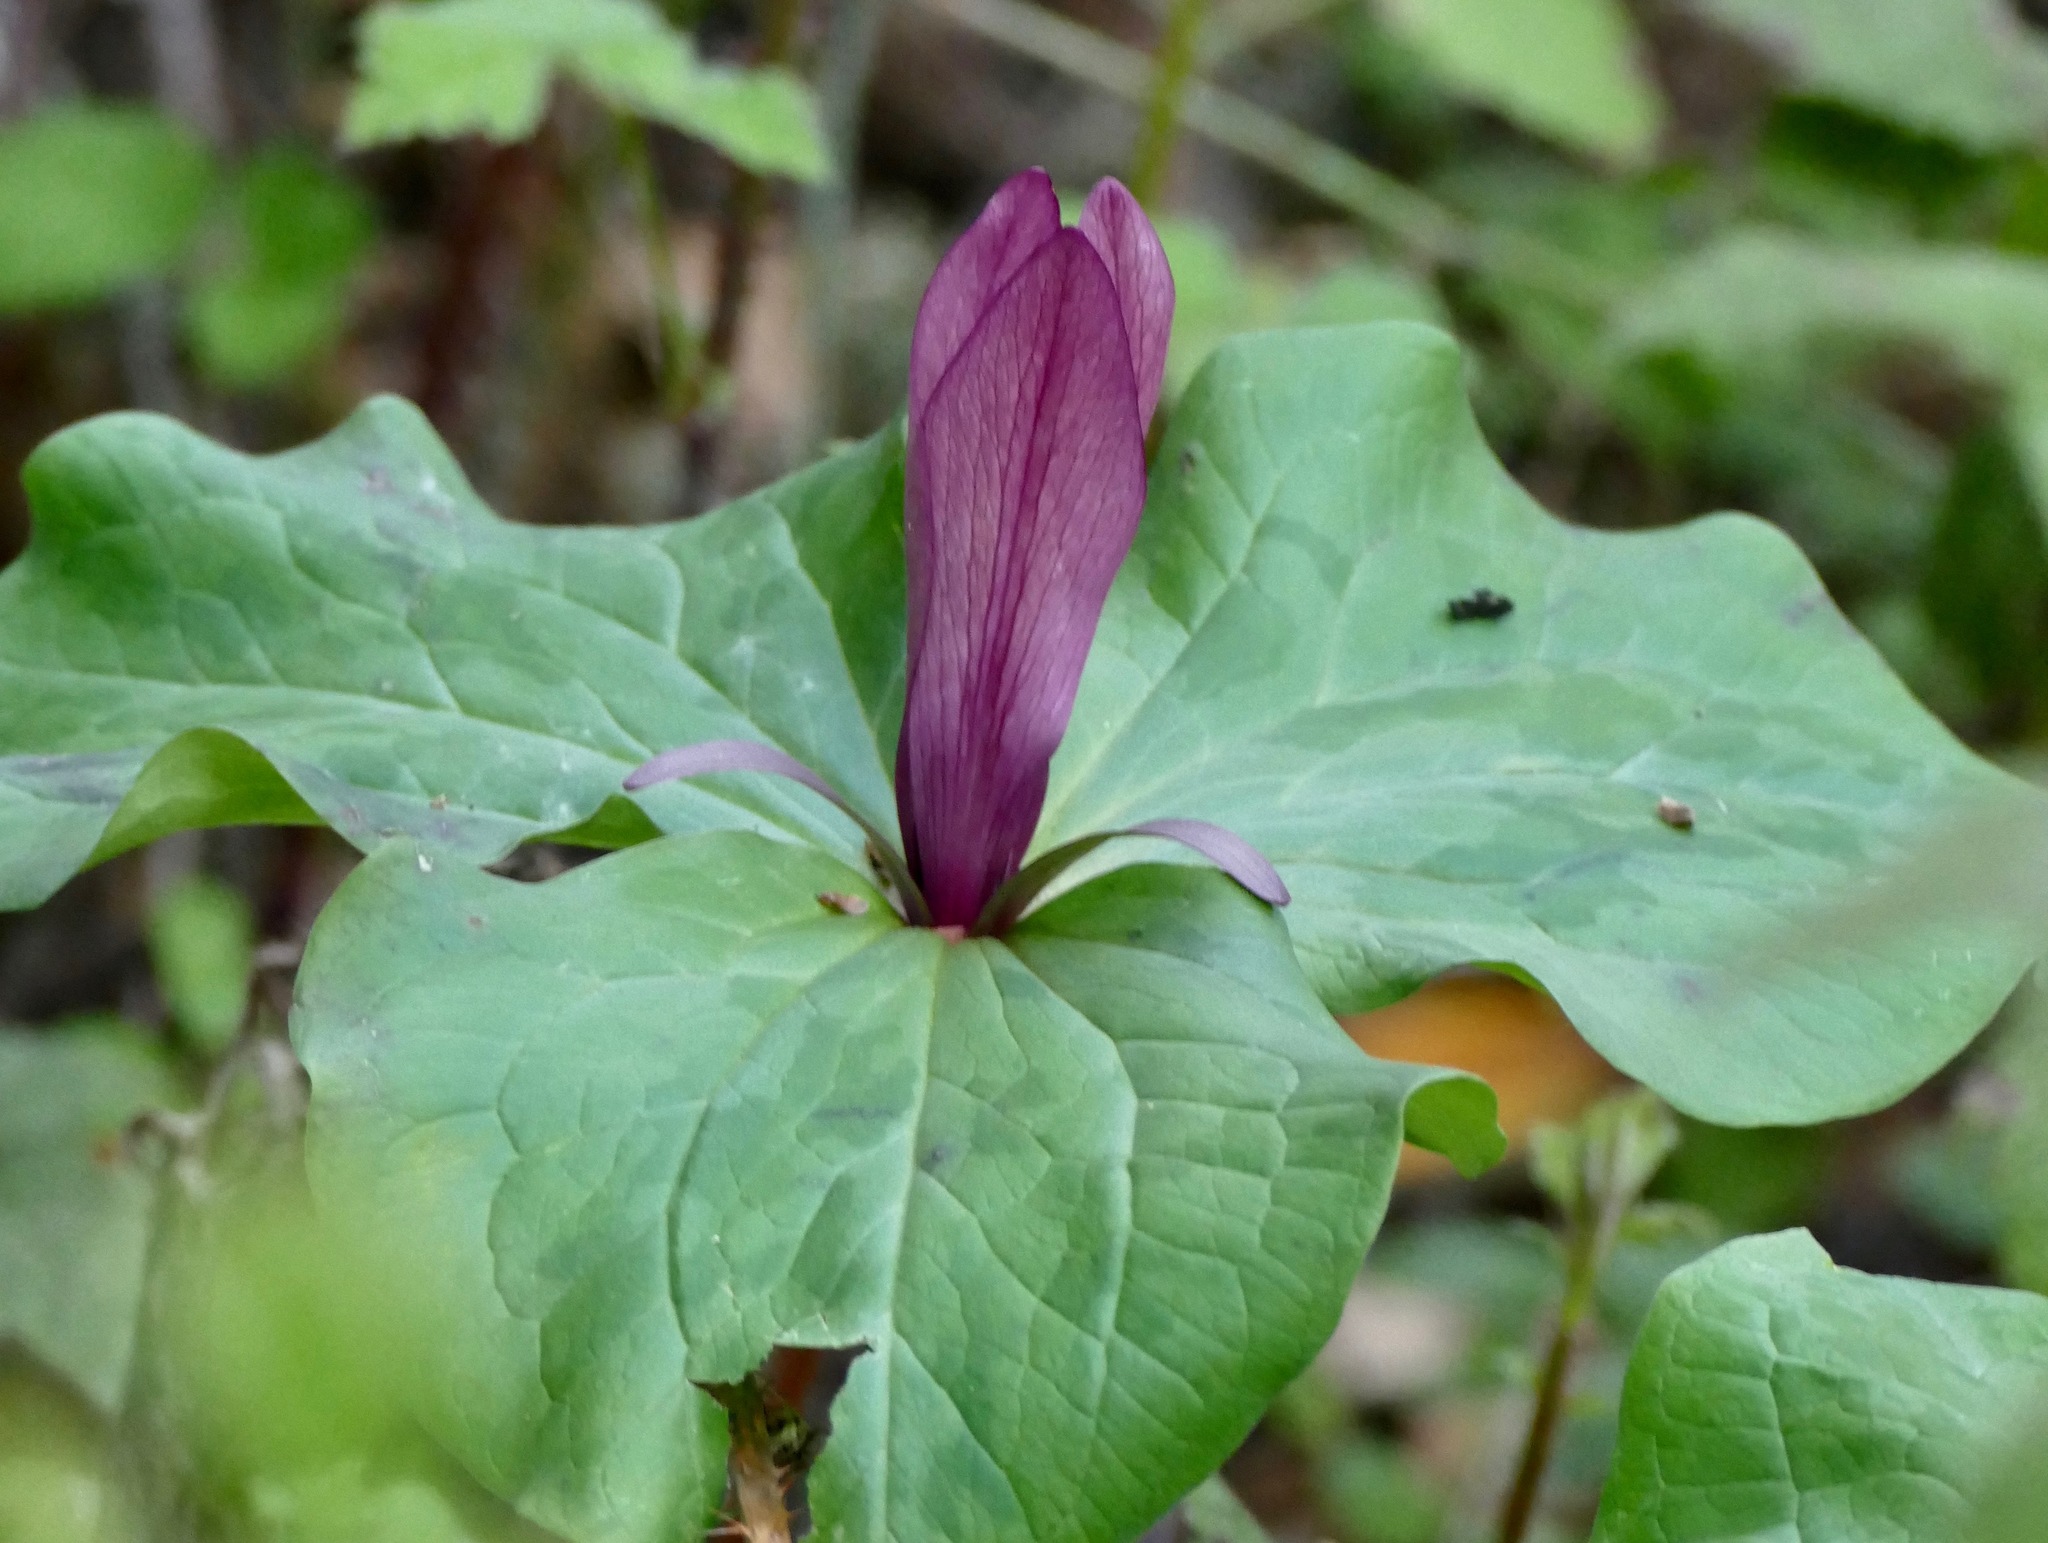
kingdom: Plantae
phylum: Tracheophyta
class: Liliopsida
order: Liliales
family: Melanthiaceae
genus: Trillium
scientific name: Trillium chloropetalum
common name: Giant trillium
